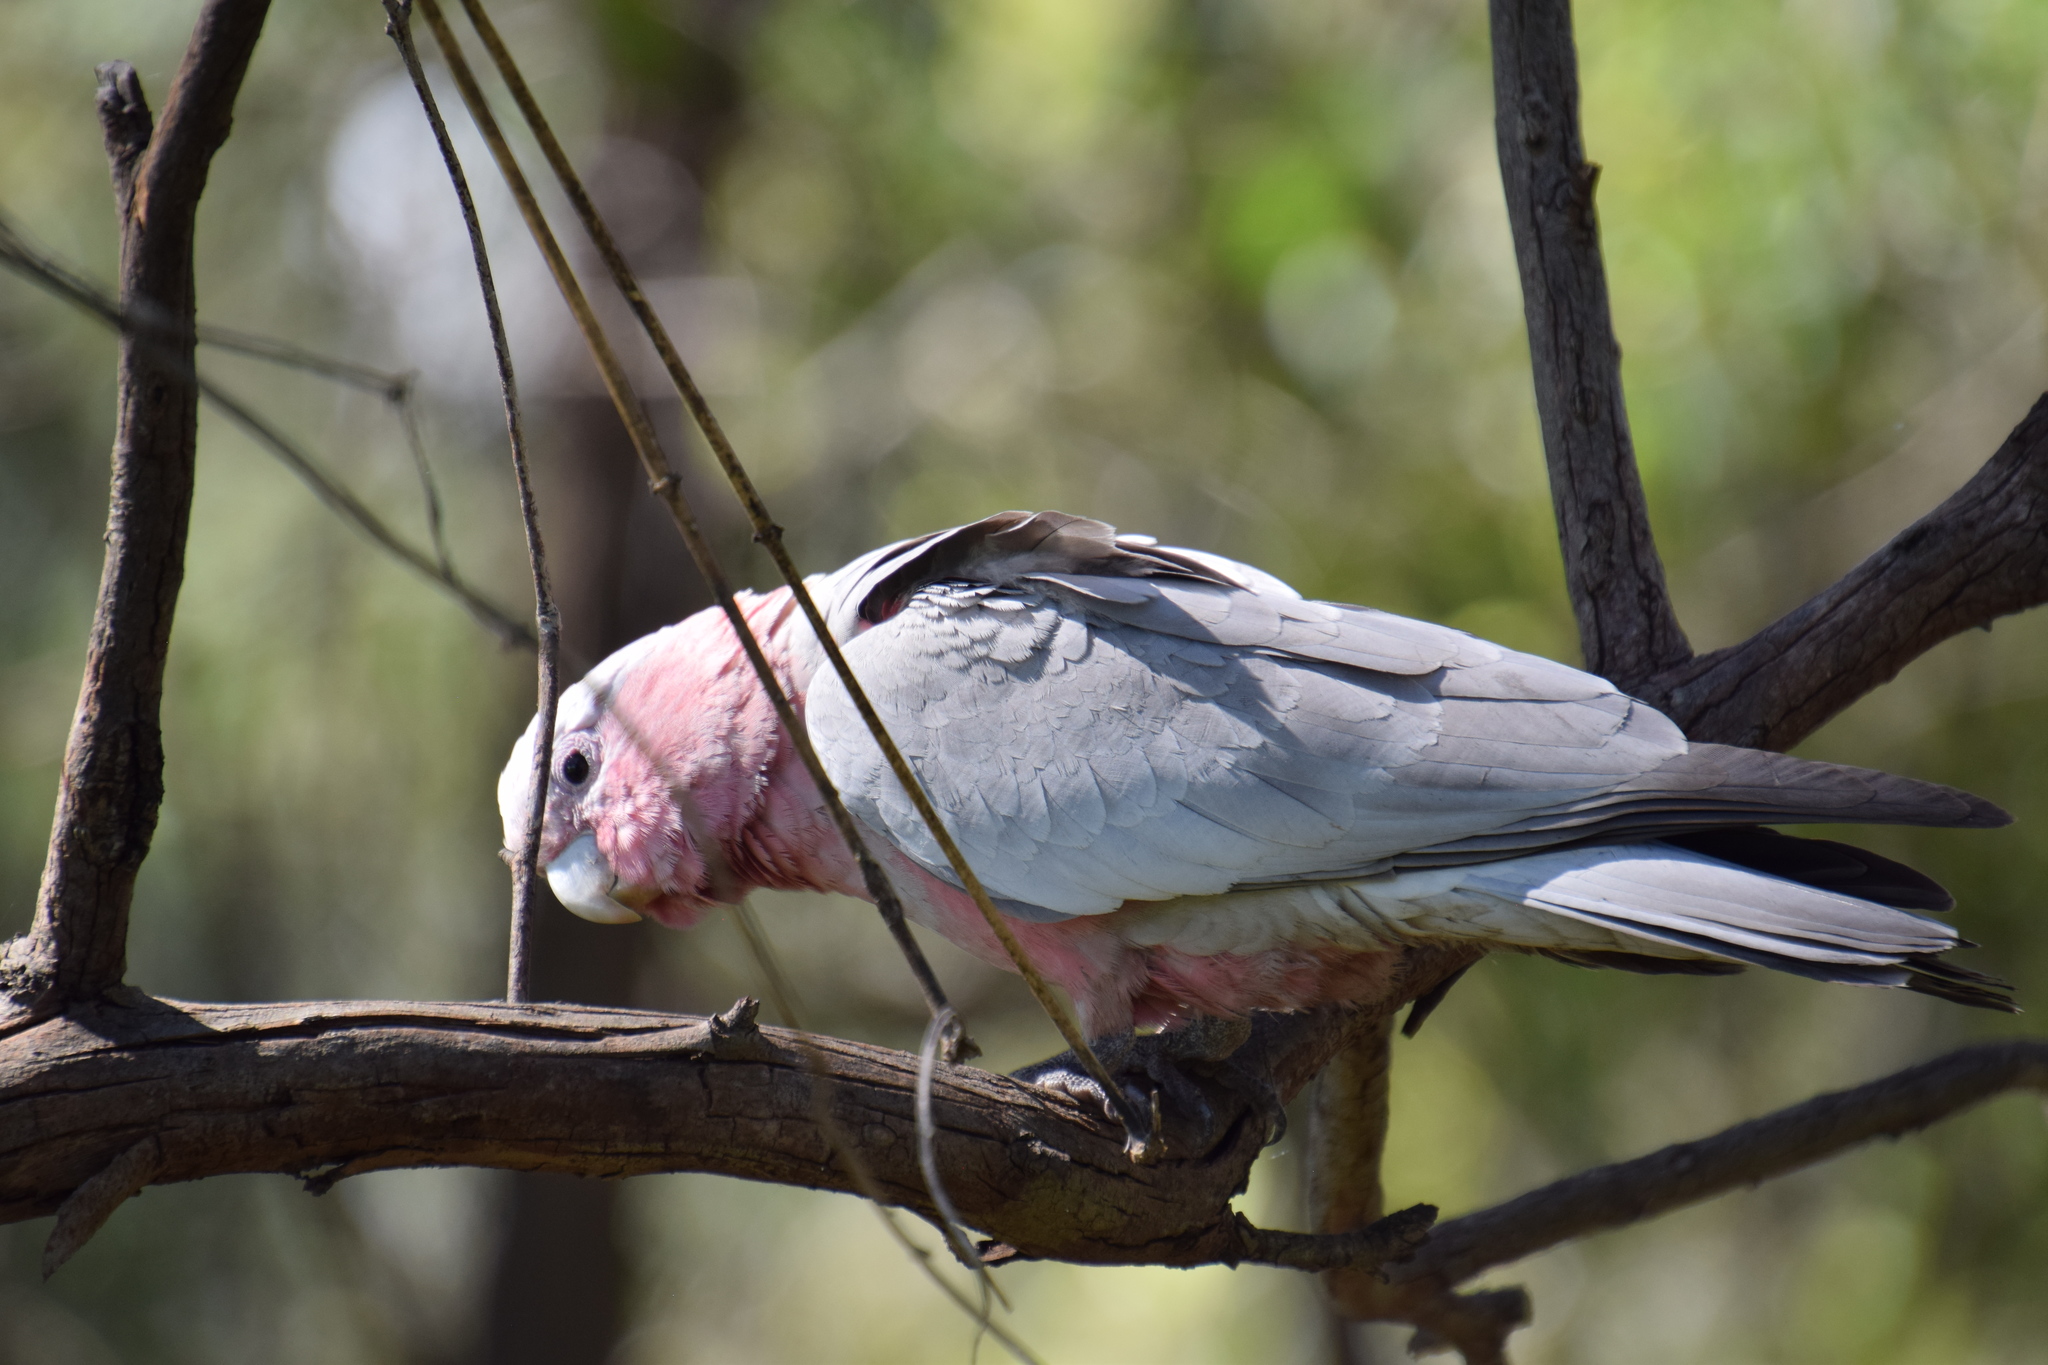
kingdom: Animalia
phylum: Chordata
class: Aves
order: Psittaciformes
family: Psittacidae
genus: Eolophus
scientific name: Eolophus roseicapilla
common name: Galah
